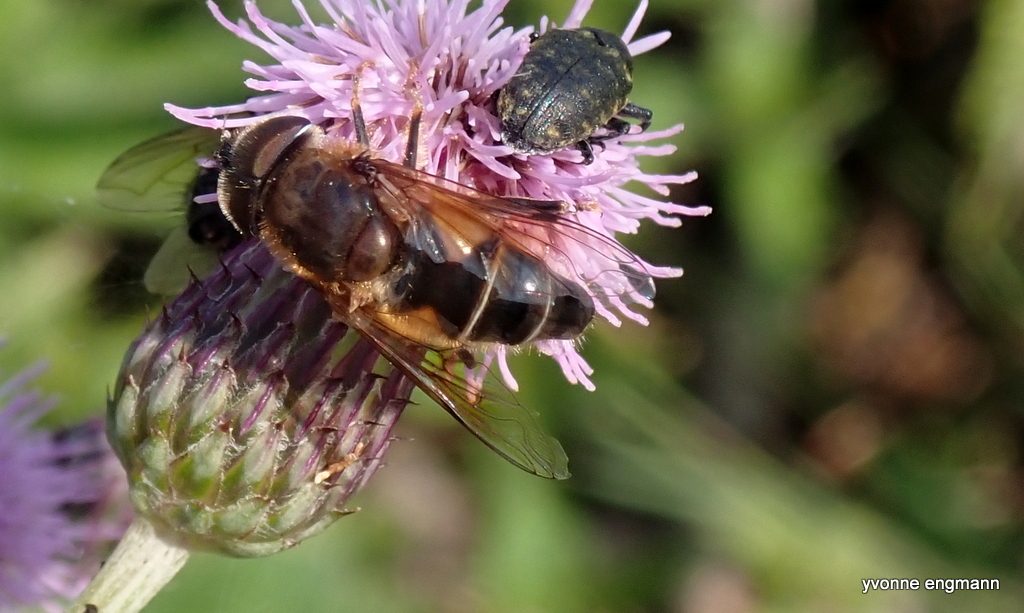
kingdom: Animalia
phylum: Arthropoda
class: Insecta
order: Diptera
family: Syrphidae
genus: Eristalis
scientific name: Eristalis pertinax
